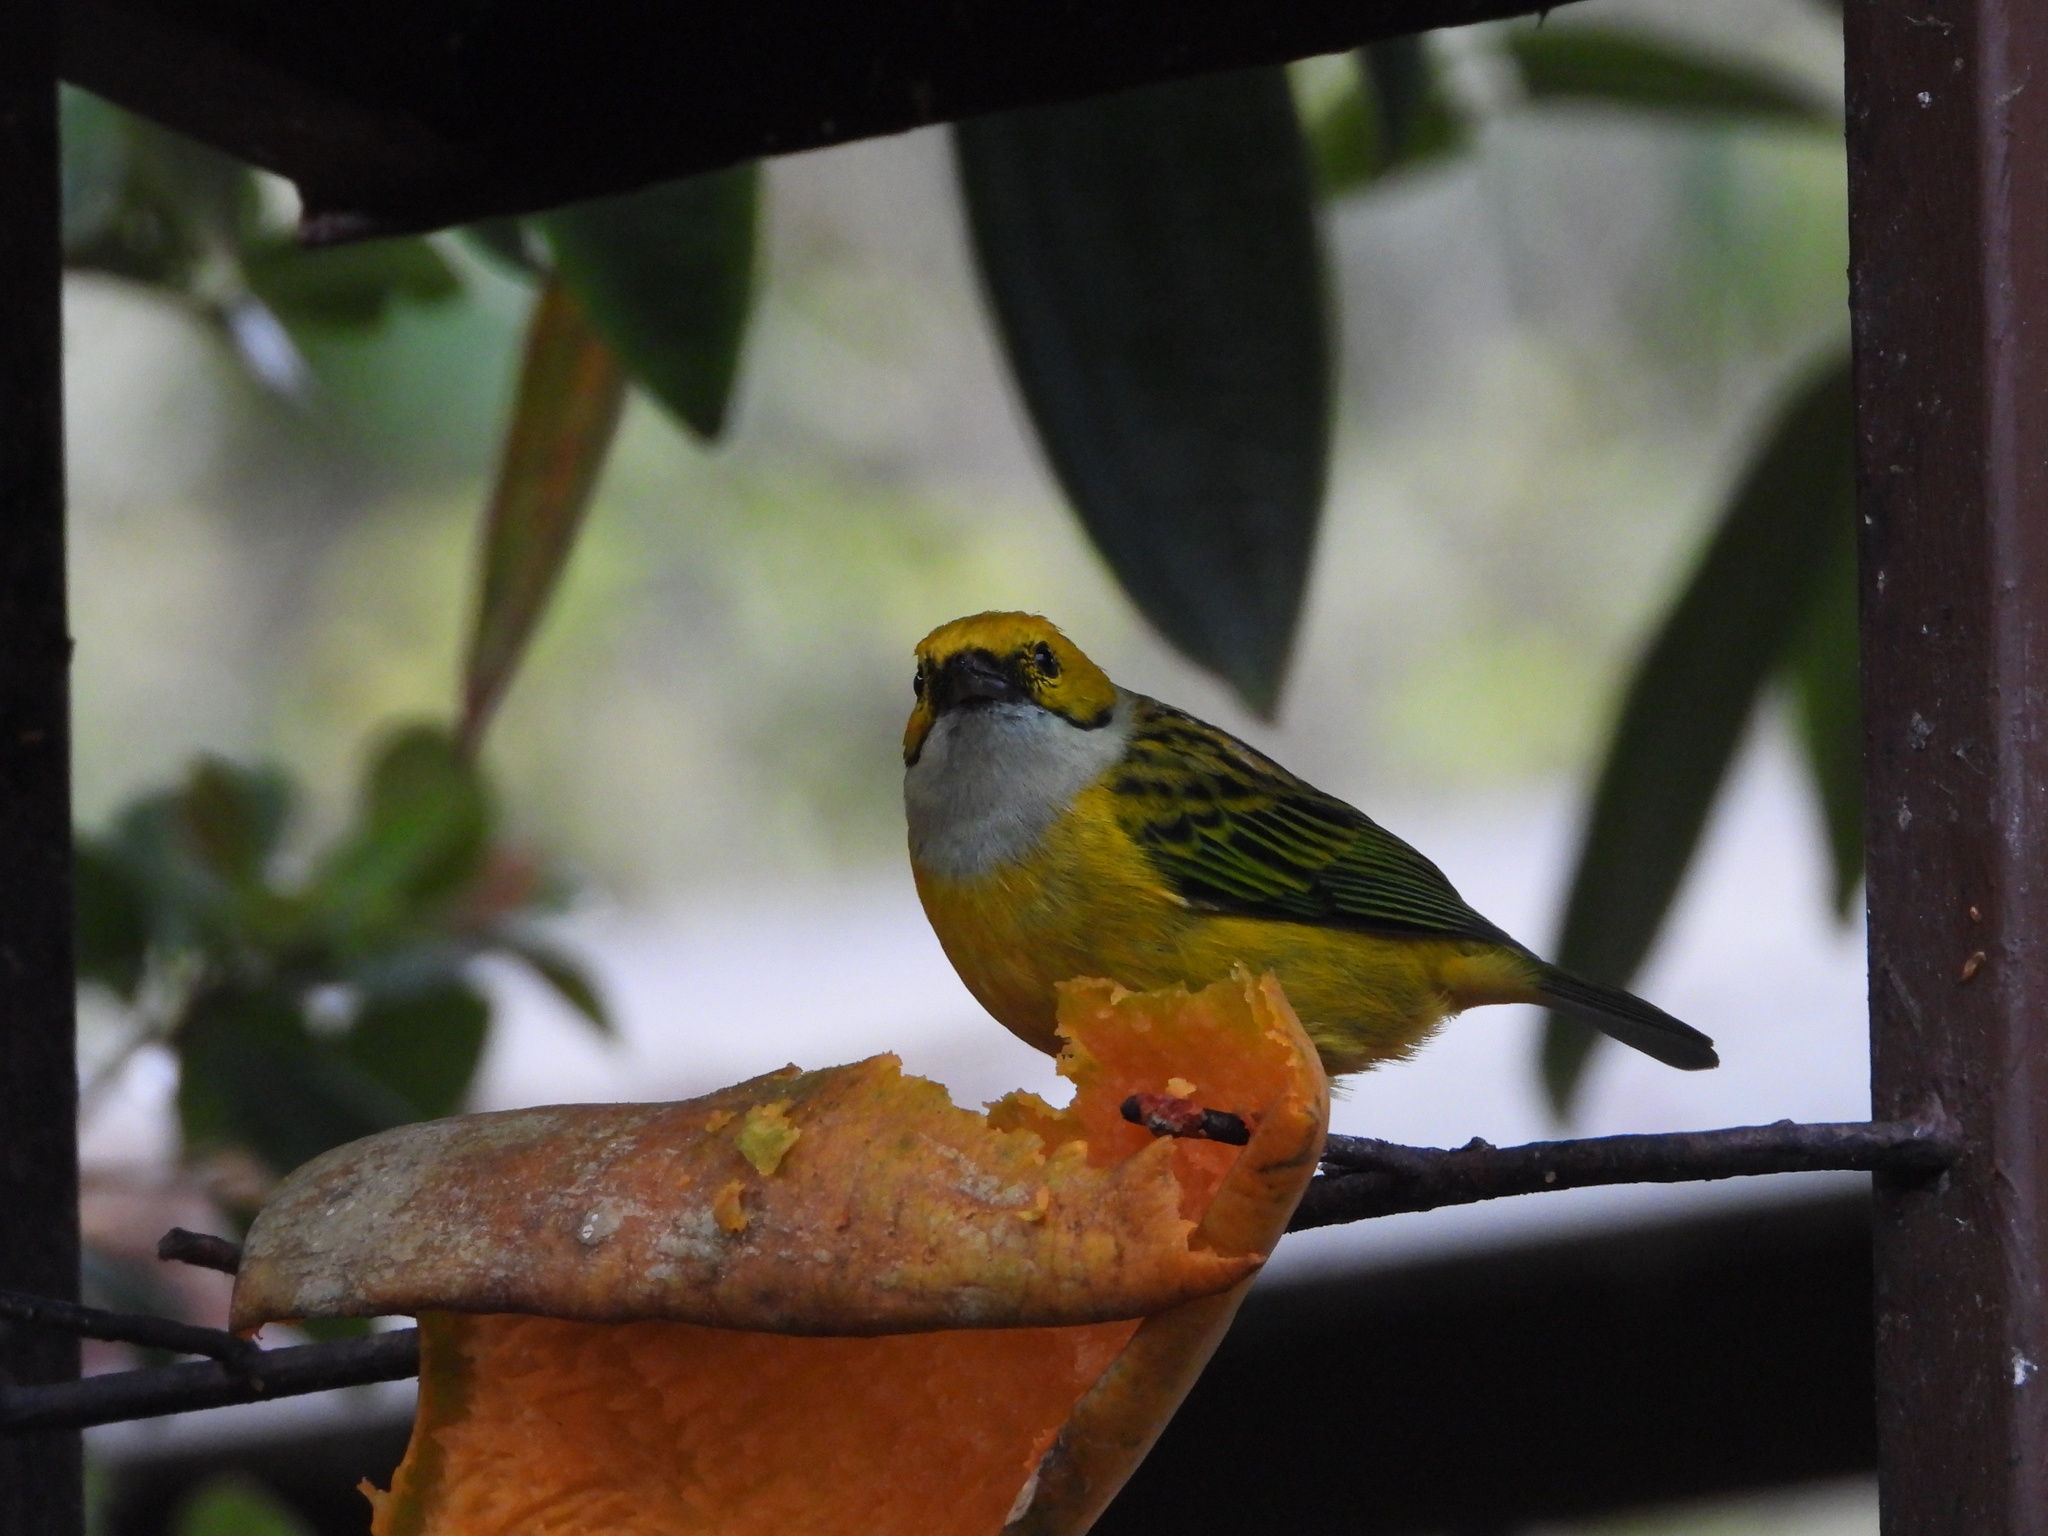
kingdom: Animalia
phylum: Chordata
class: Aves
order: Passeriformes
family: Thraupidae
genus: Tangara
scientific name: Tangara icterocephala
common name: Silver-throated tanager
